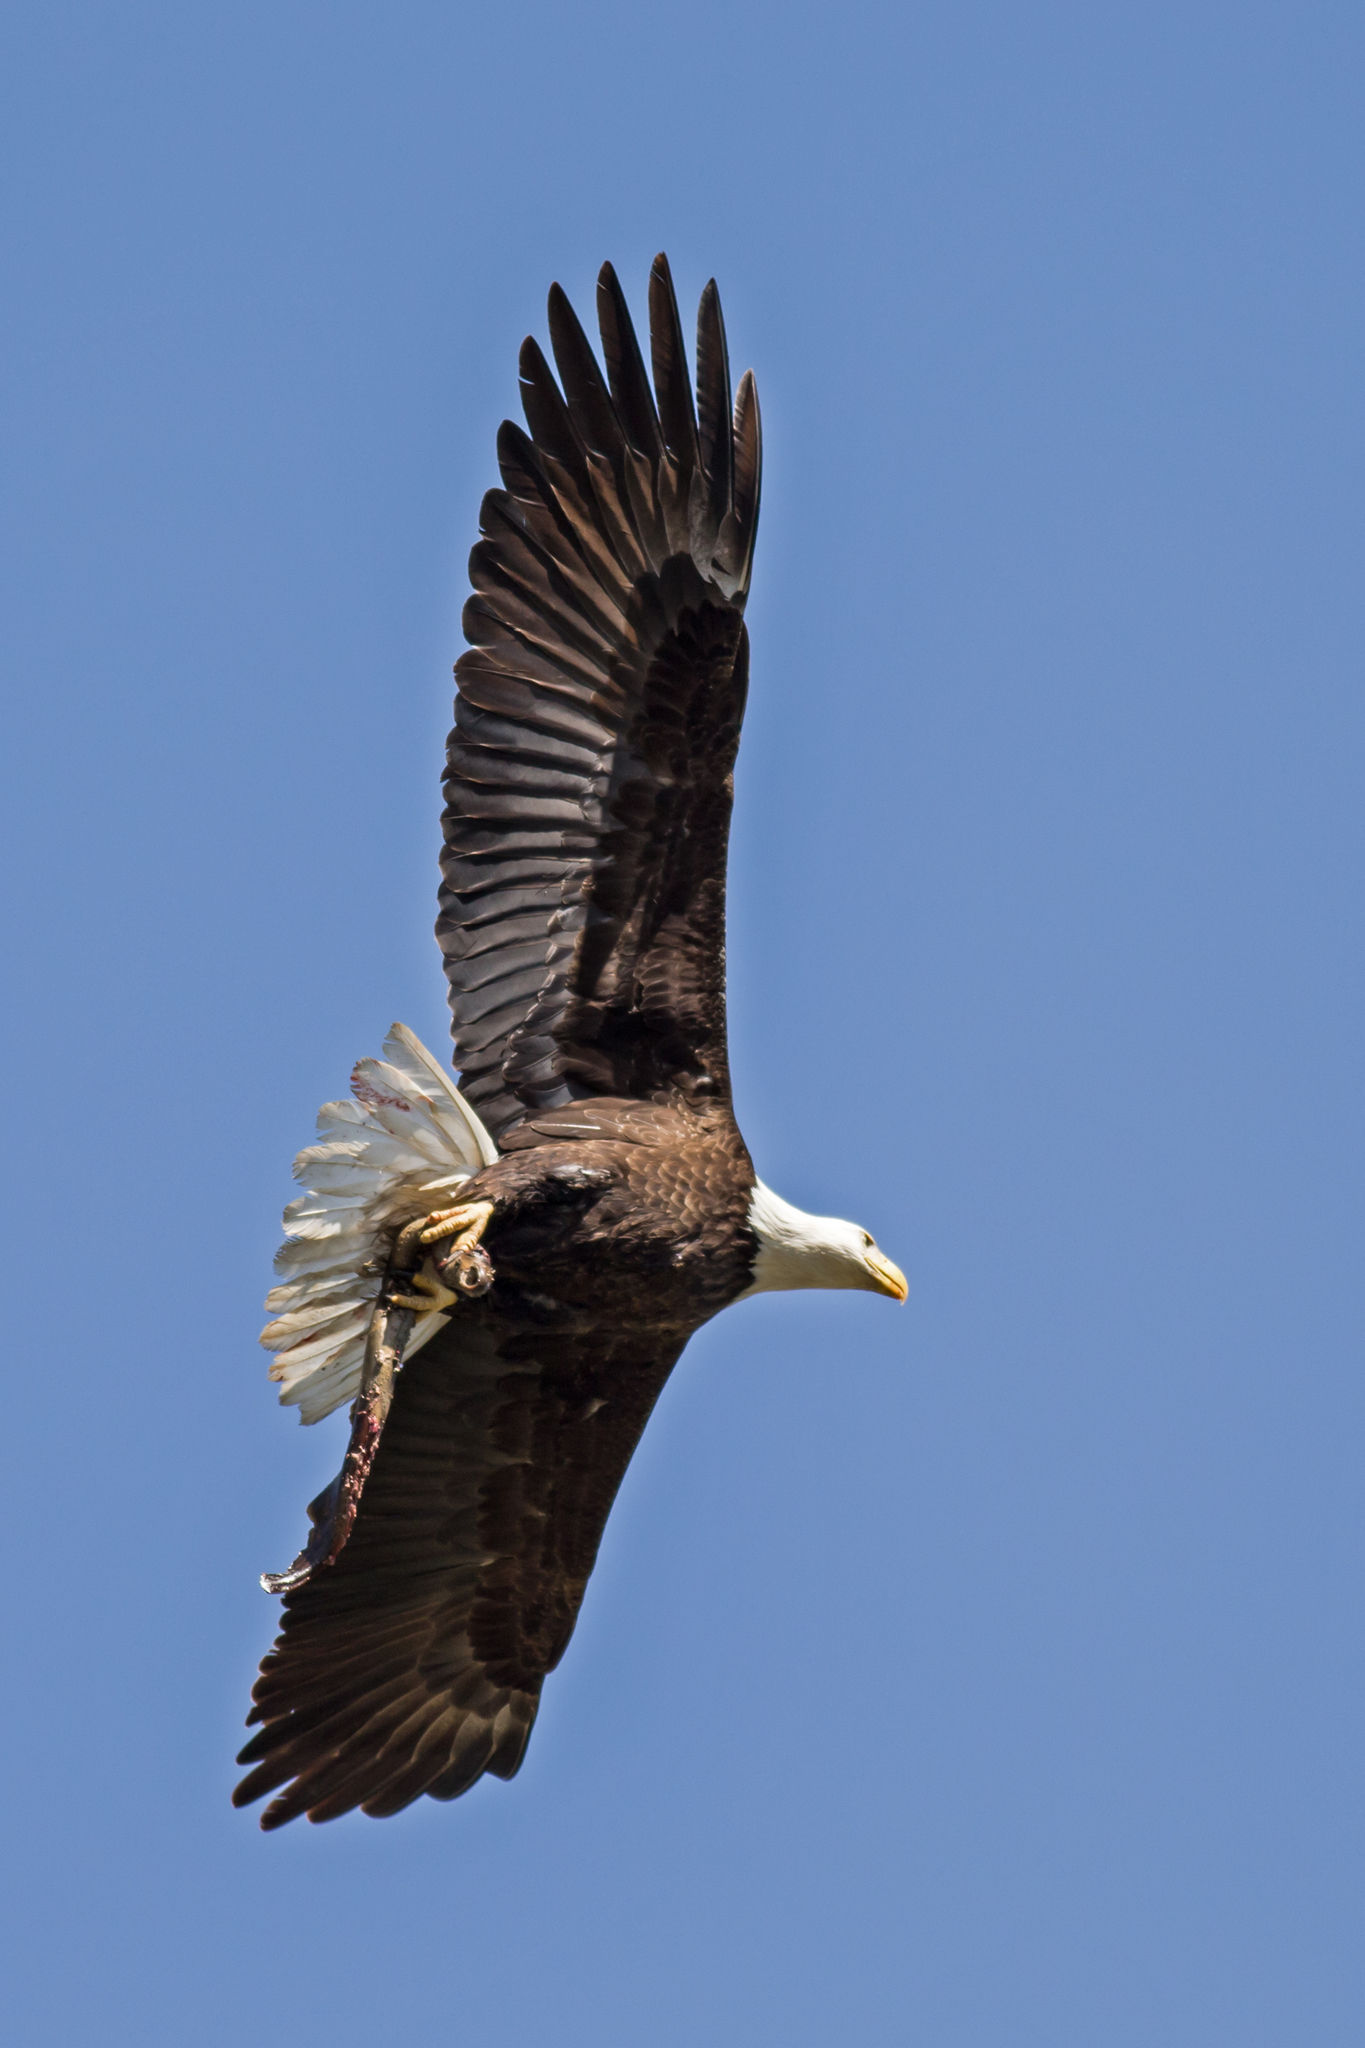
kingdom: Animalia
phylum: Chordata
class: Aves
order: Accipitriformes
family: Accipitridae
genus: Haliaeetus
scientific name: Haliaeetus leucocephalus
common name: Bald eagle
